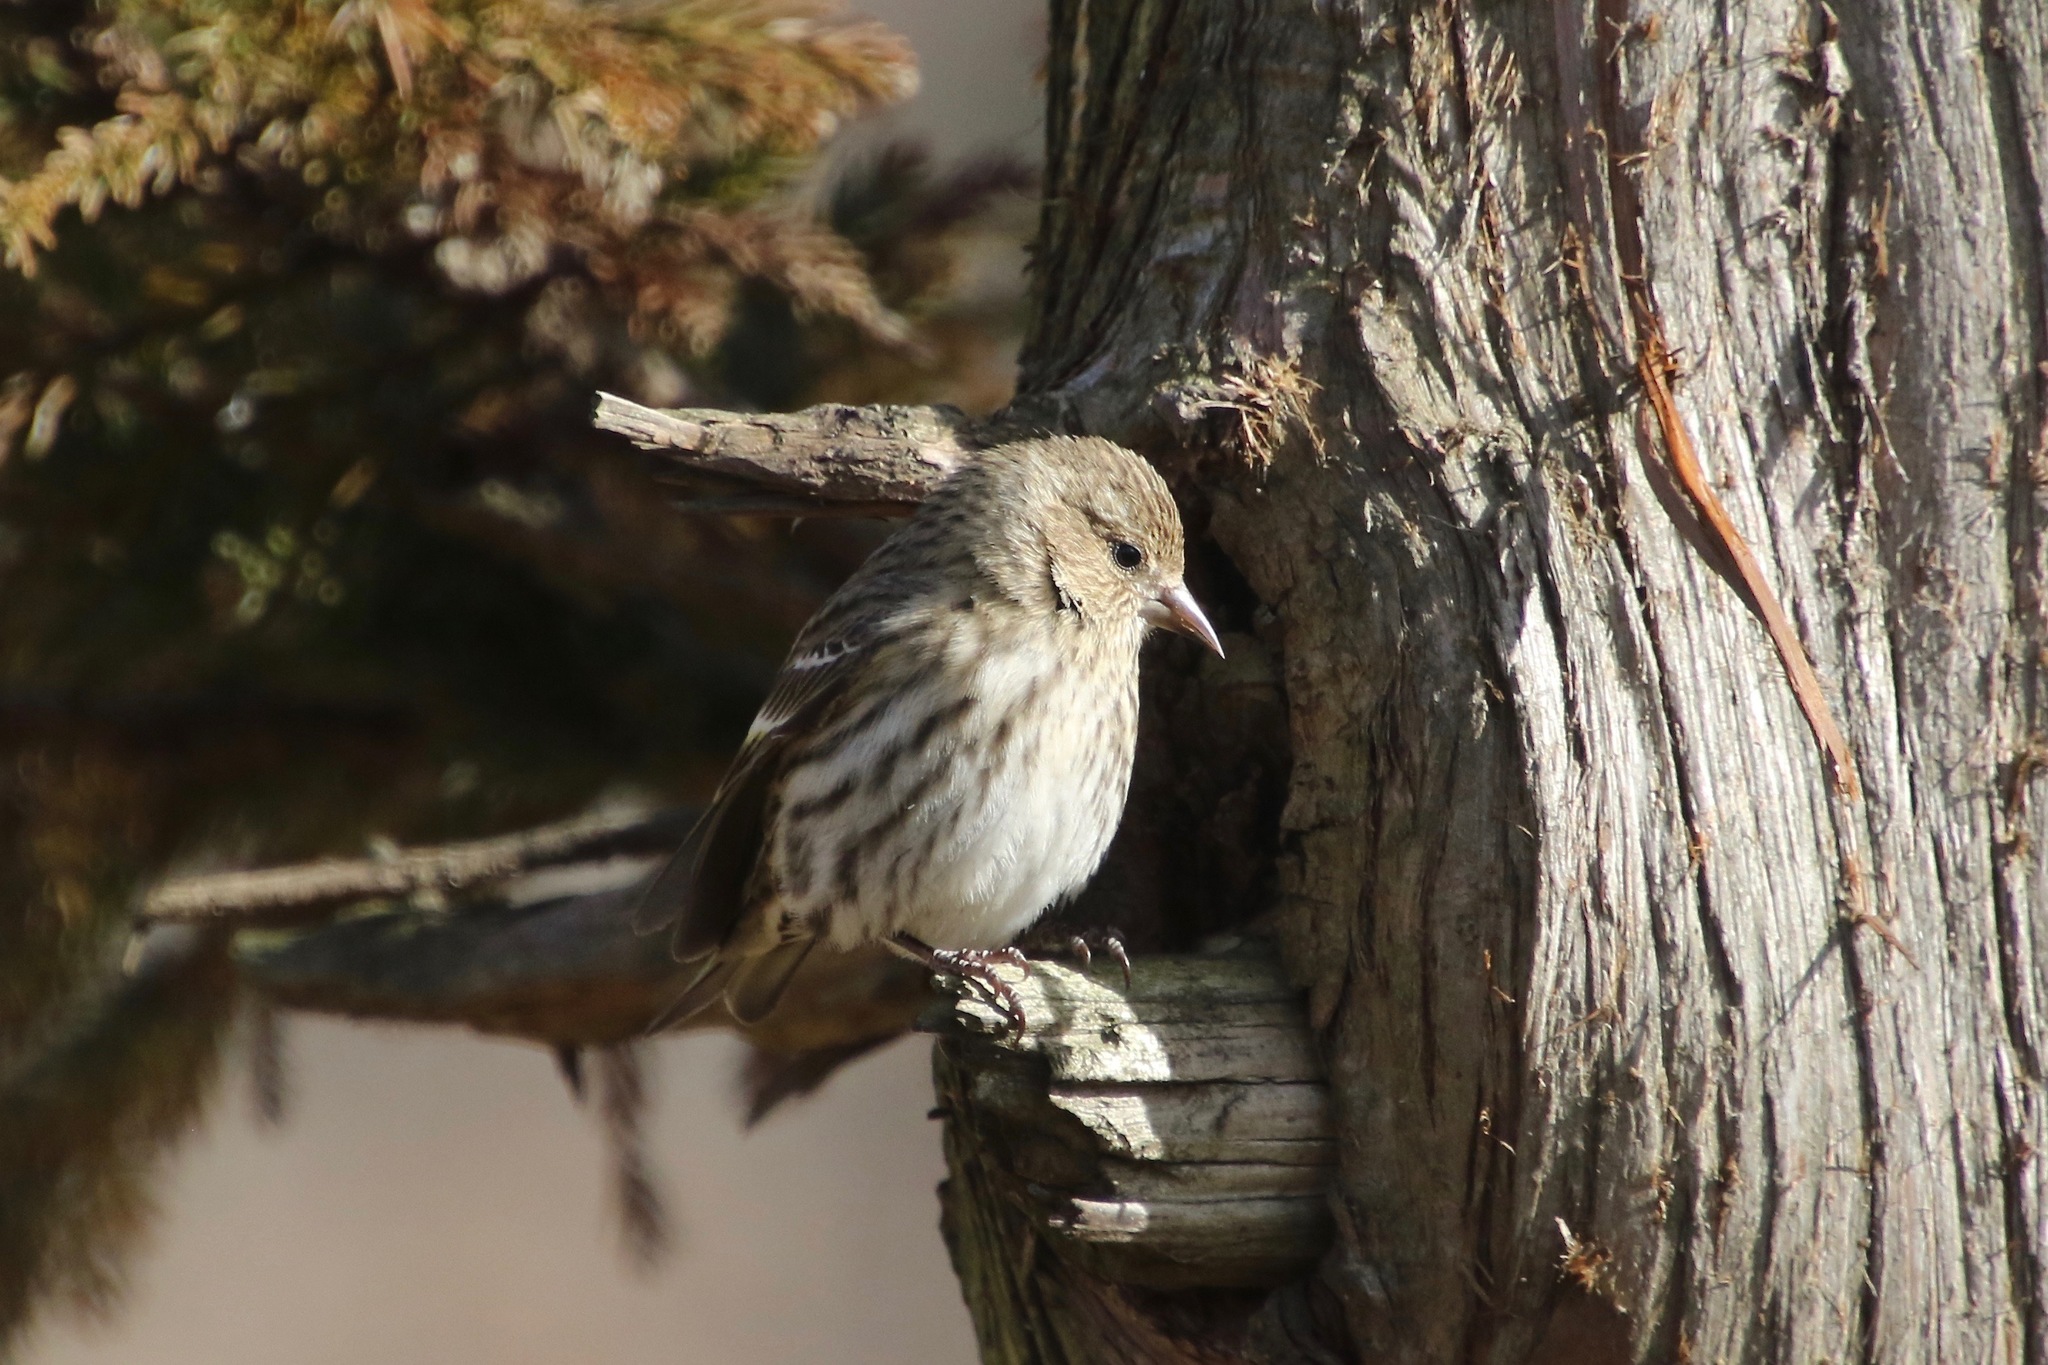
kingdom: Animalia
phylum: Chordata
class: Aves
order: Passeriformes
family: Fringillidae
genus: Spinus
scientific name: Spinus pinus
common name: Pine siskin
